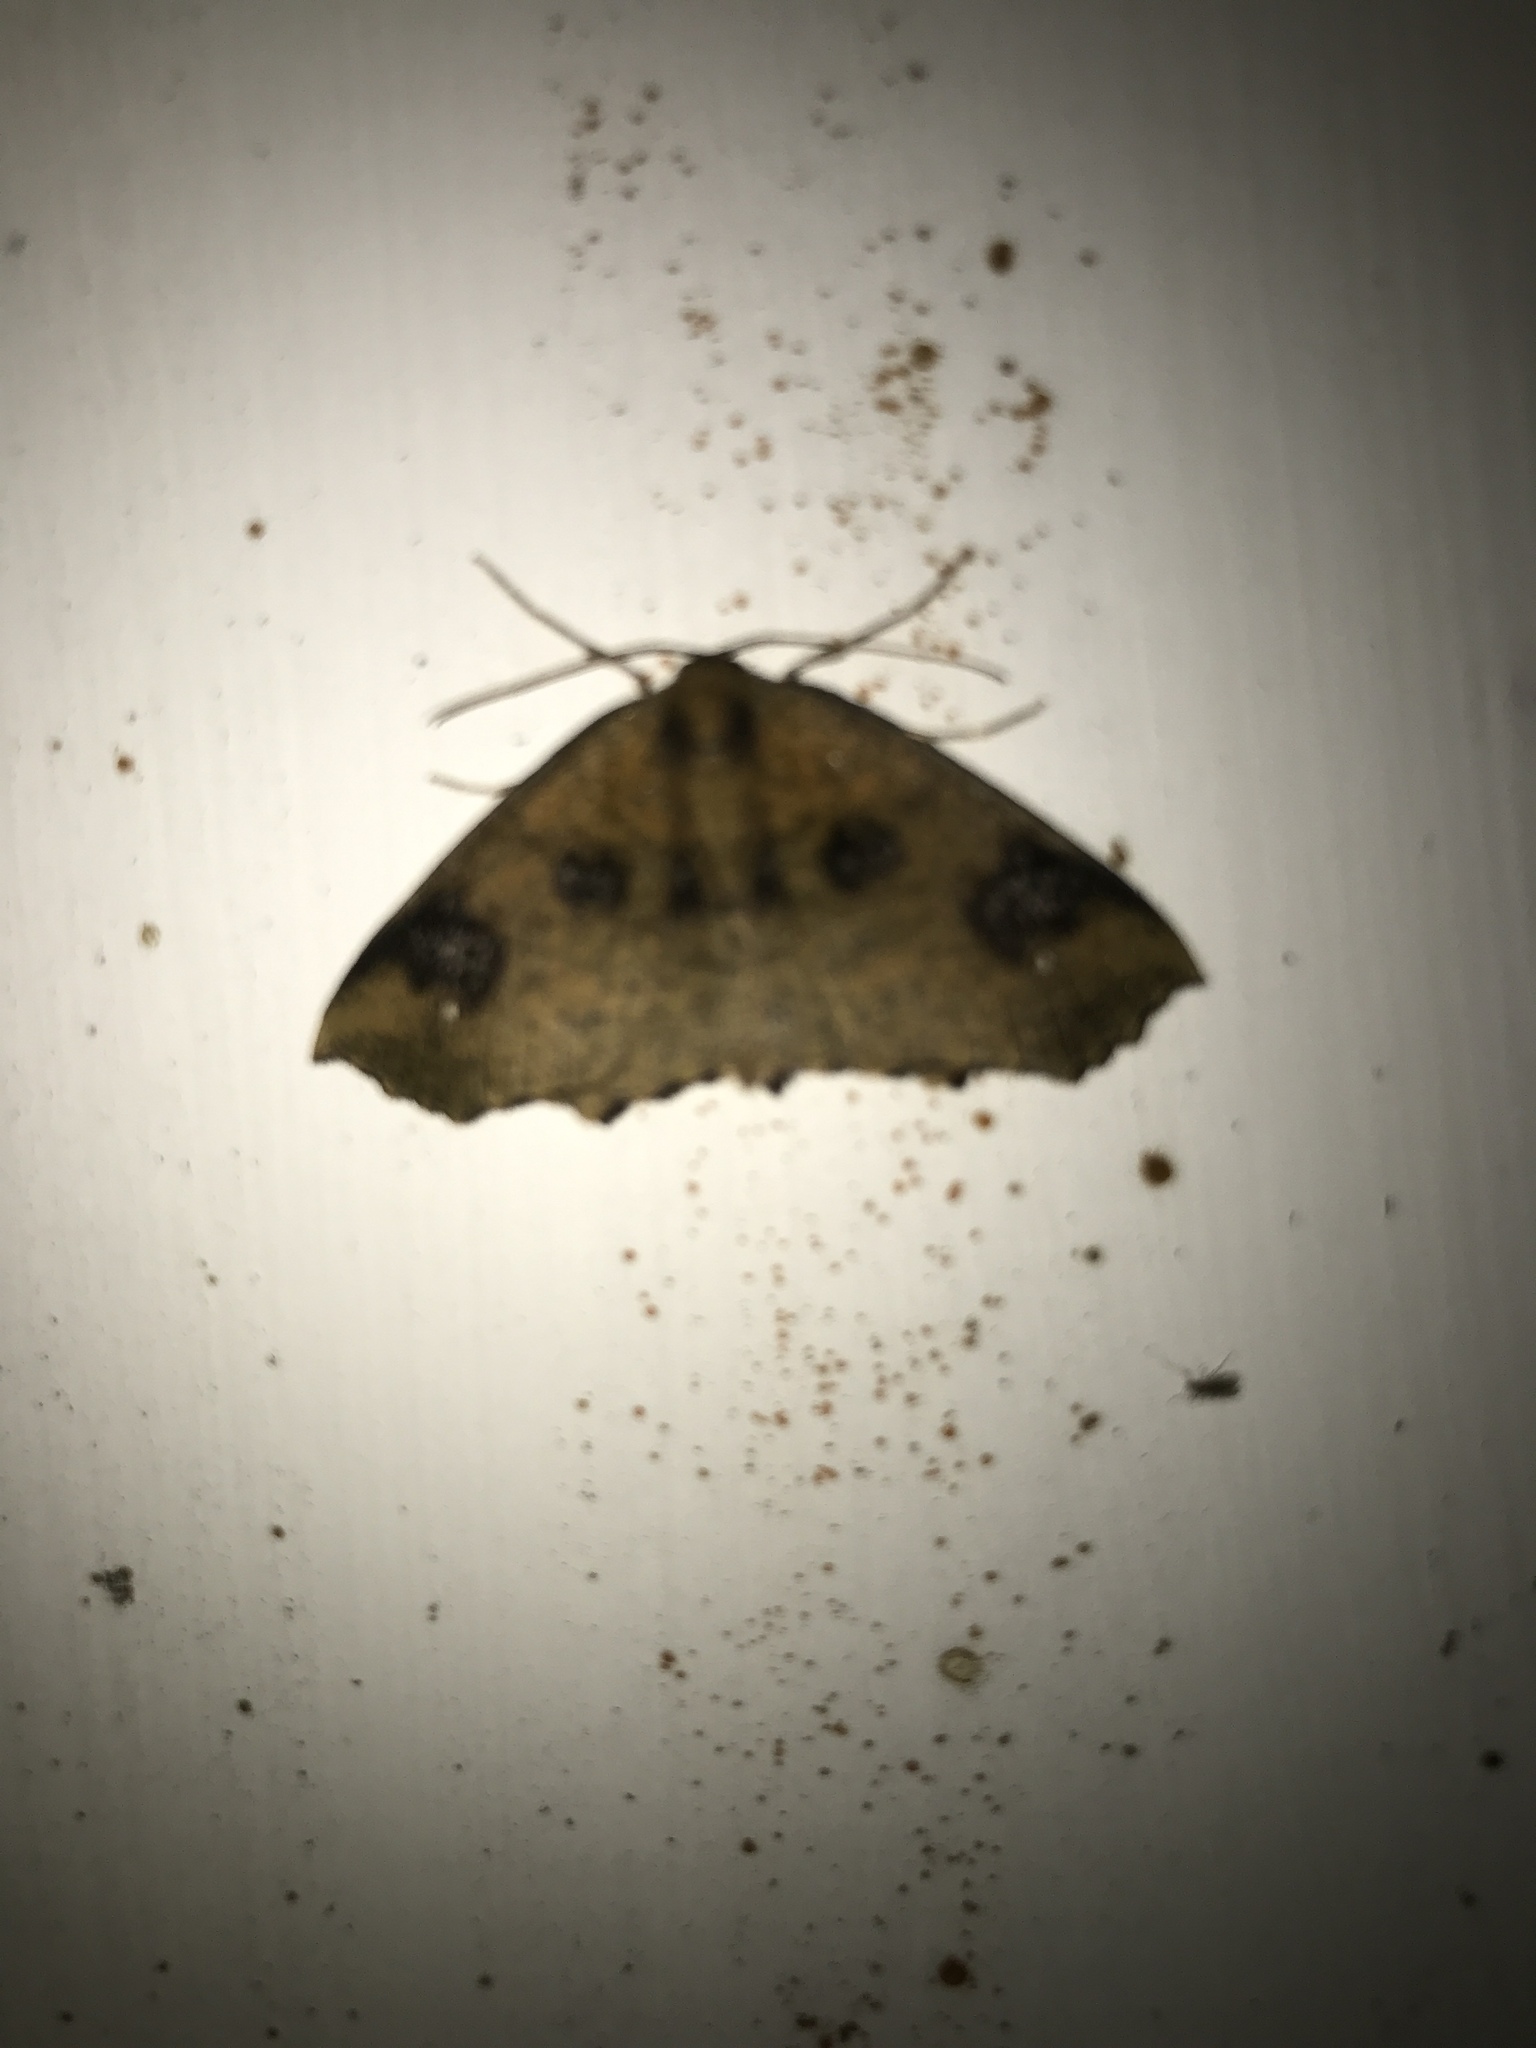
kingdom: Animalia
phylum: Arthropoda
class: Insecta
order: Lepidoptera
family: Geometridae
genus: Xyridacma
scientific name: Xyridacma ustaria
